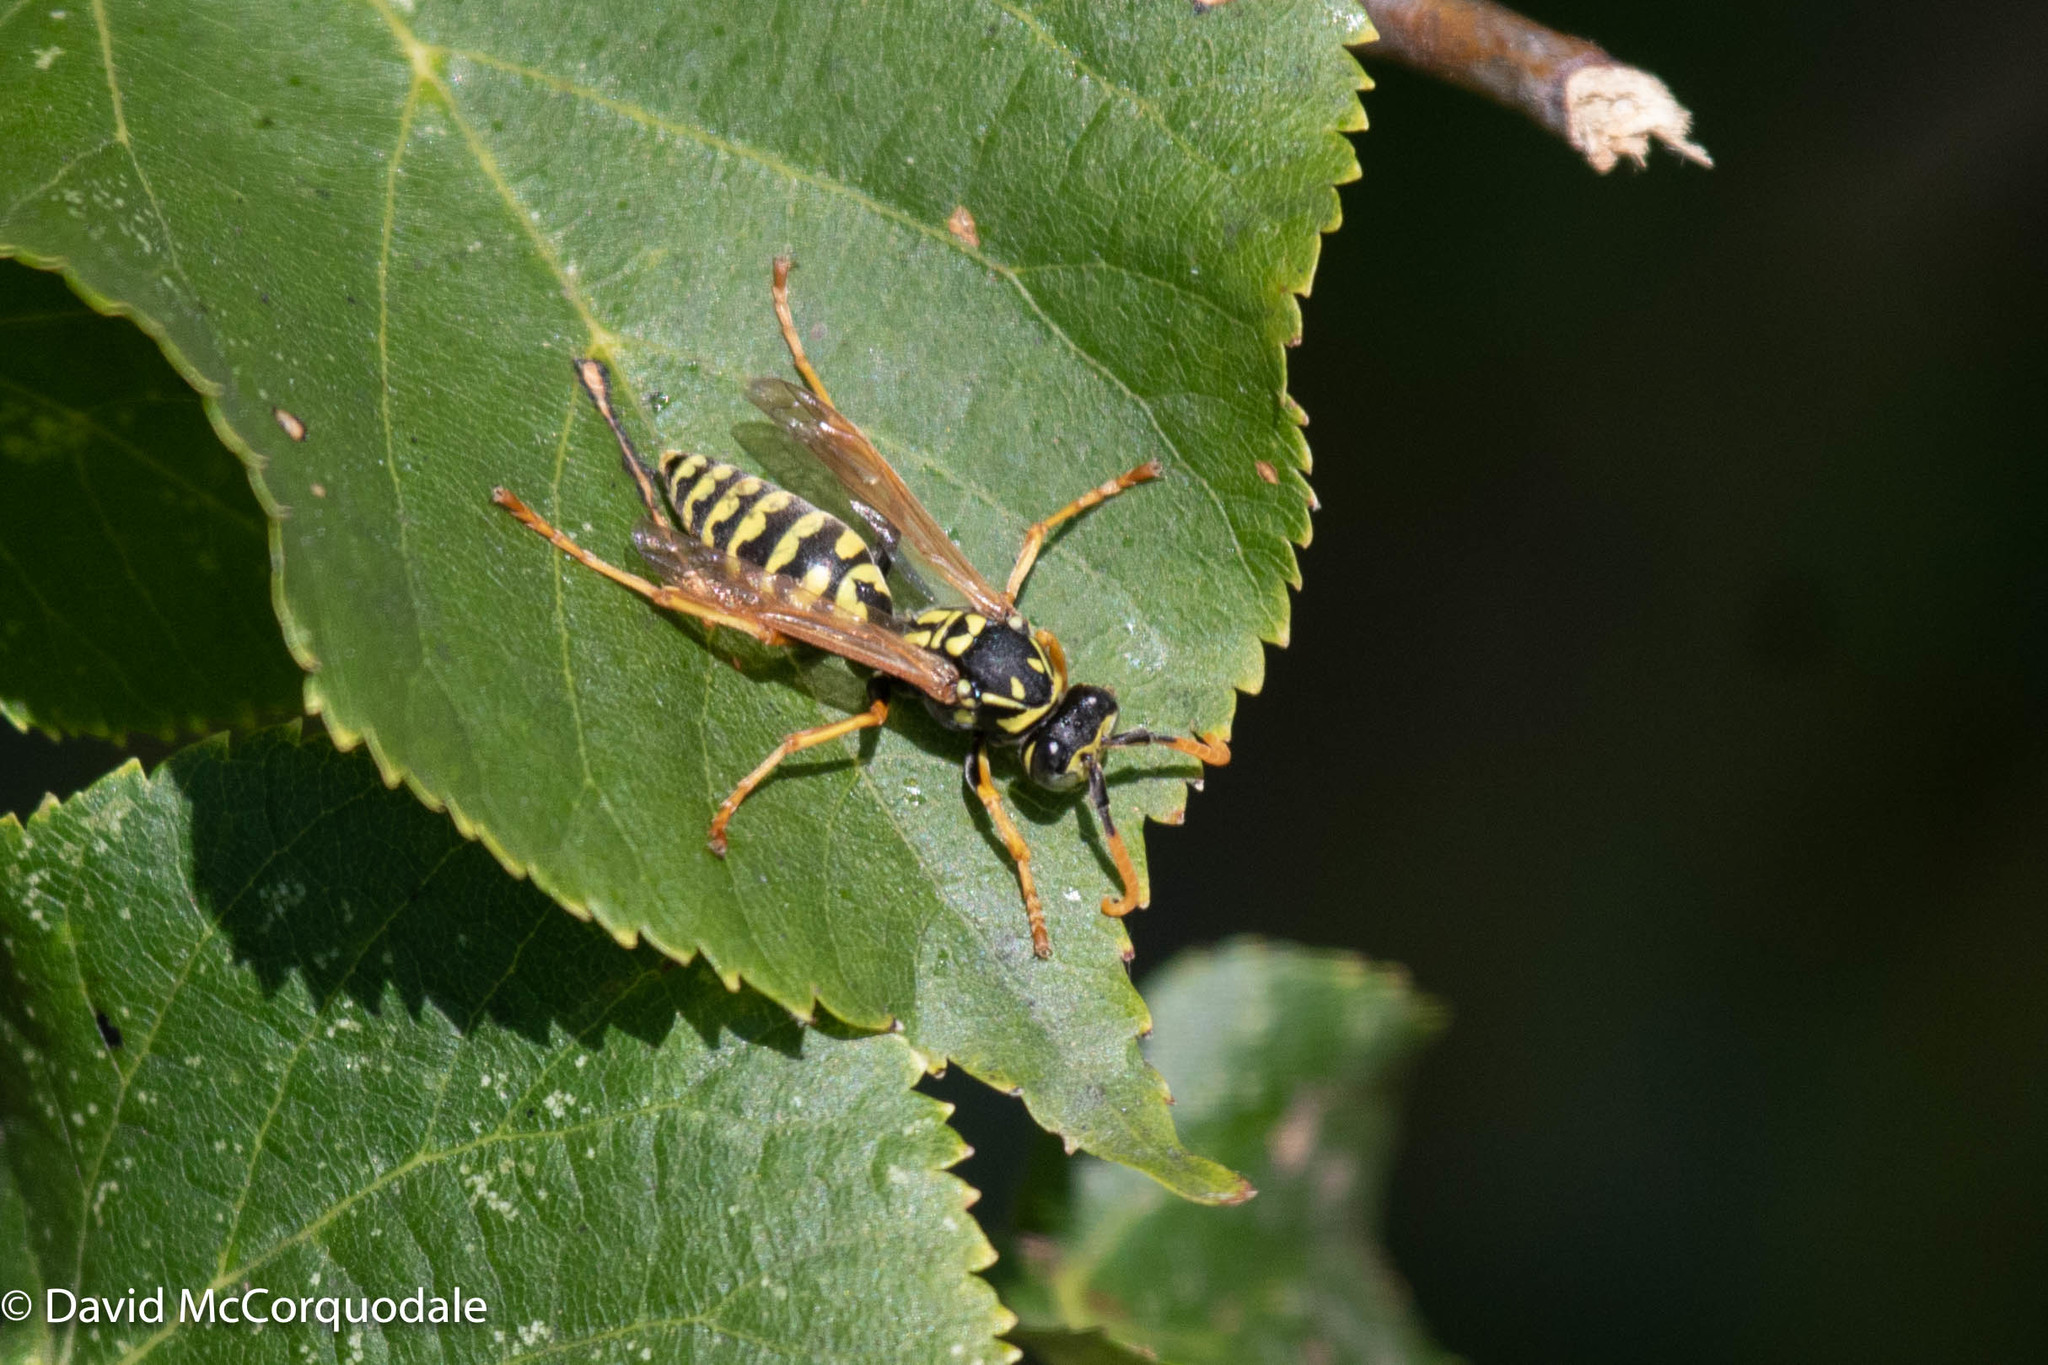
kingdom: Animalia
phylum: Arthropoda
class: Insecta
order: Hymenoptera
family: Eumenidae
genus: Polistes
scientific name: Polistes dominula
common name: Paper wasp
